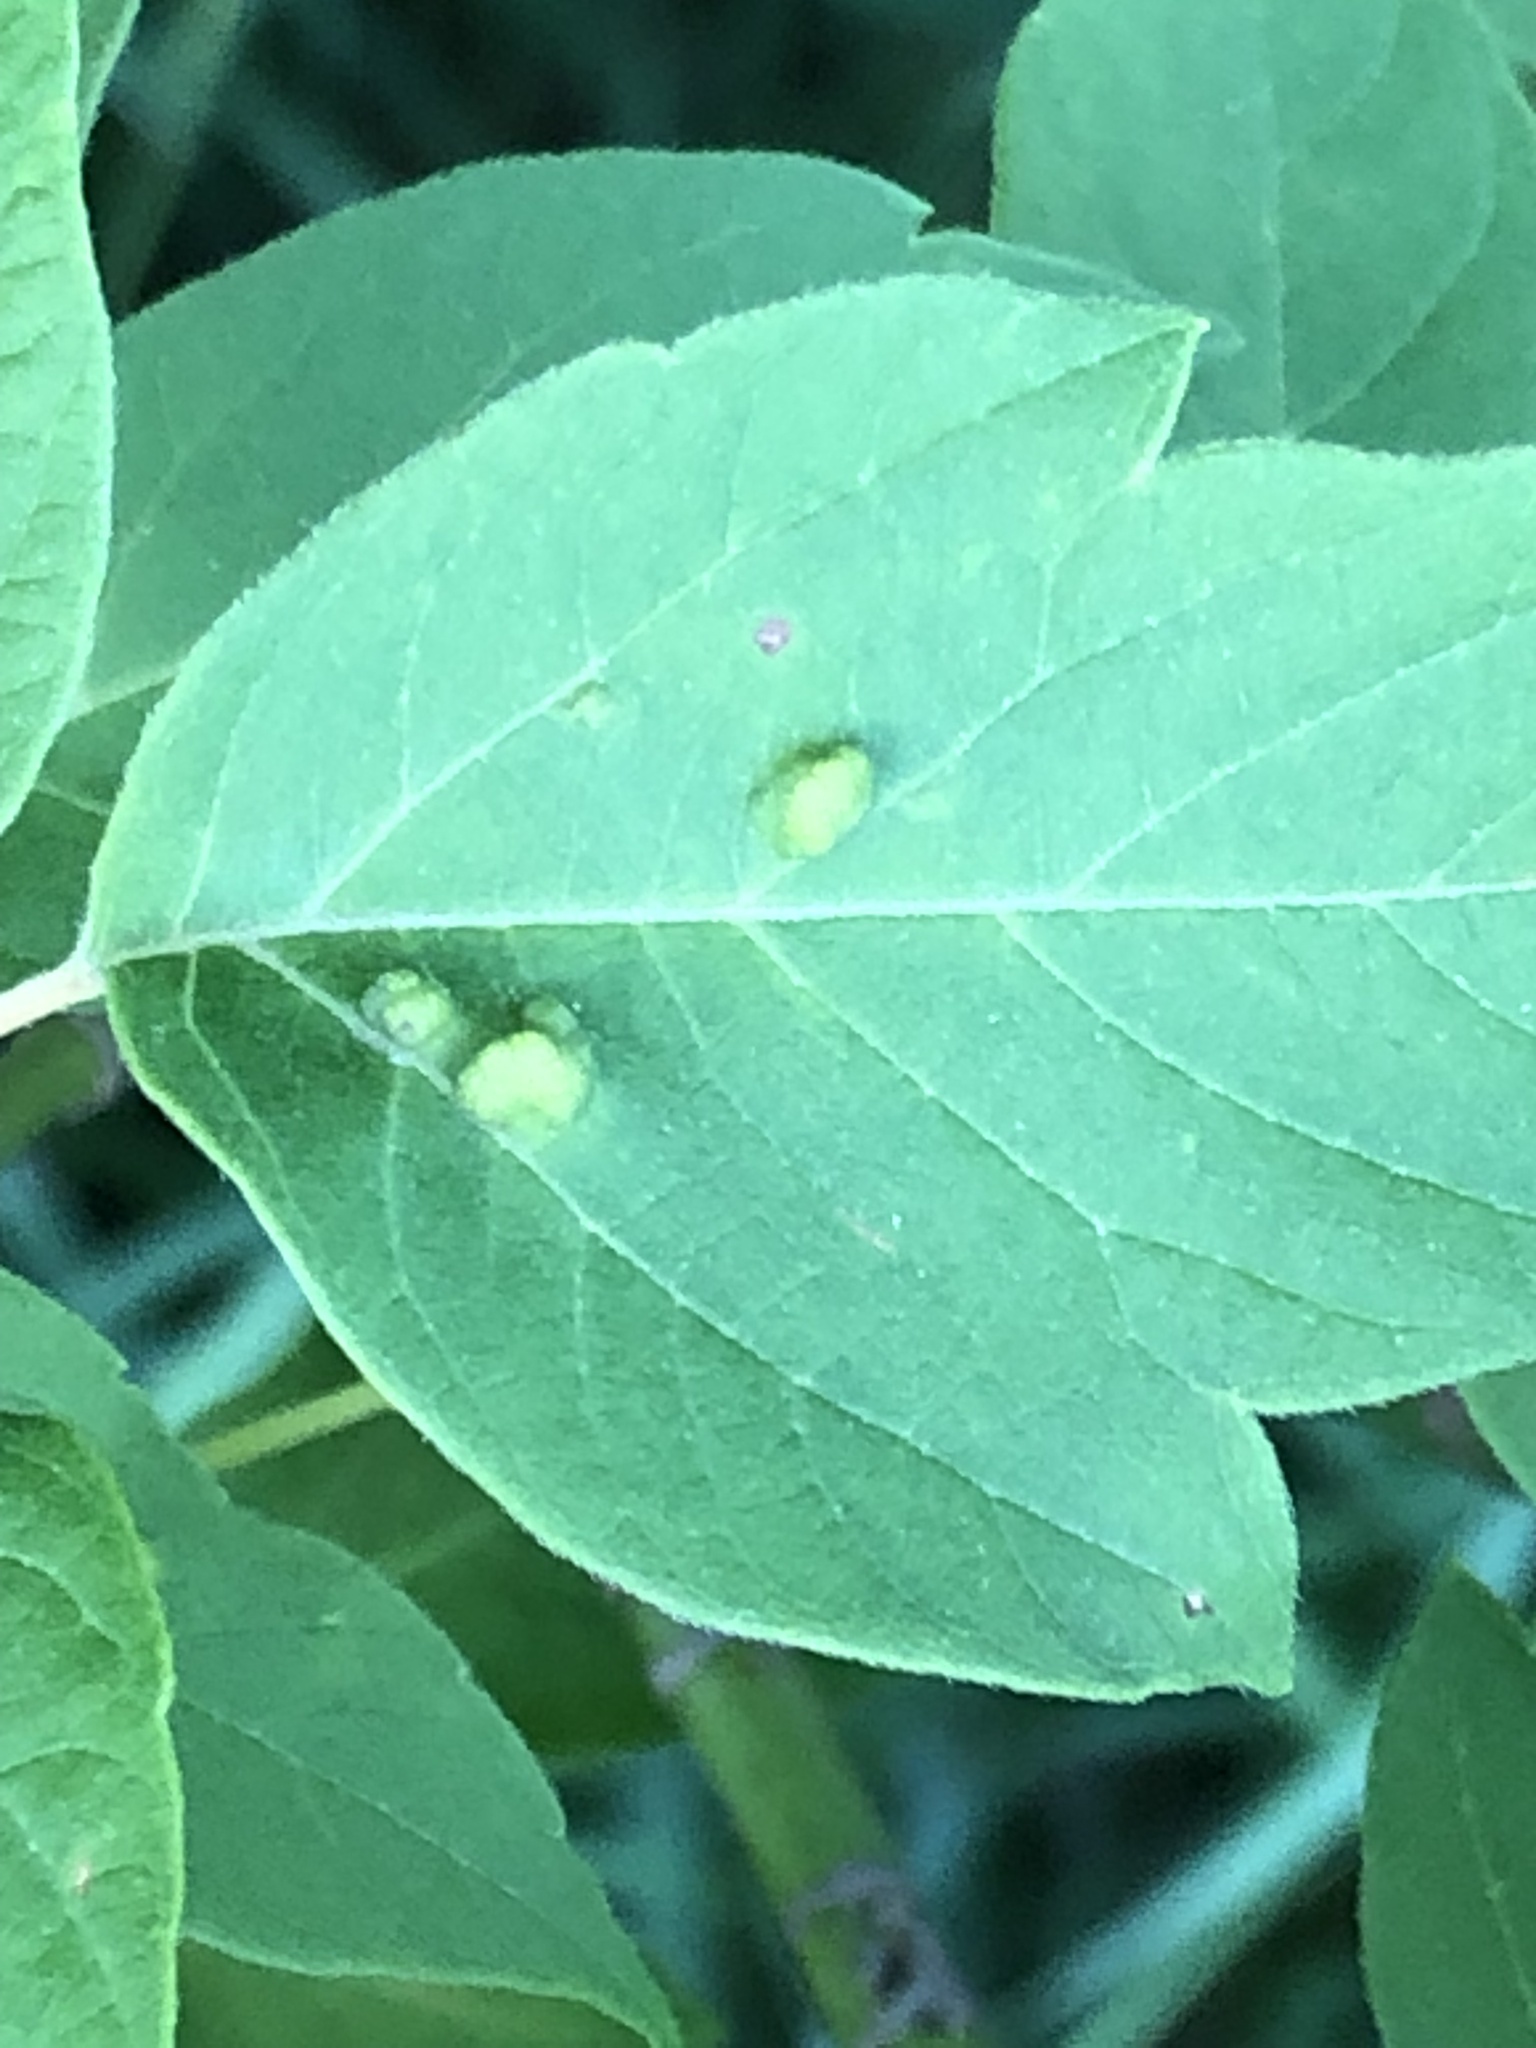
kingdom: Animalia
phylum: Arthropoda
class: Arachnida
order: Trombidiformes
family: Eriophyidae
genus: Aceria
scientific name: Aceria
